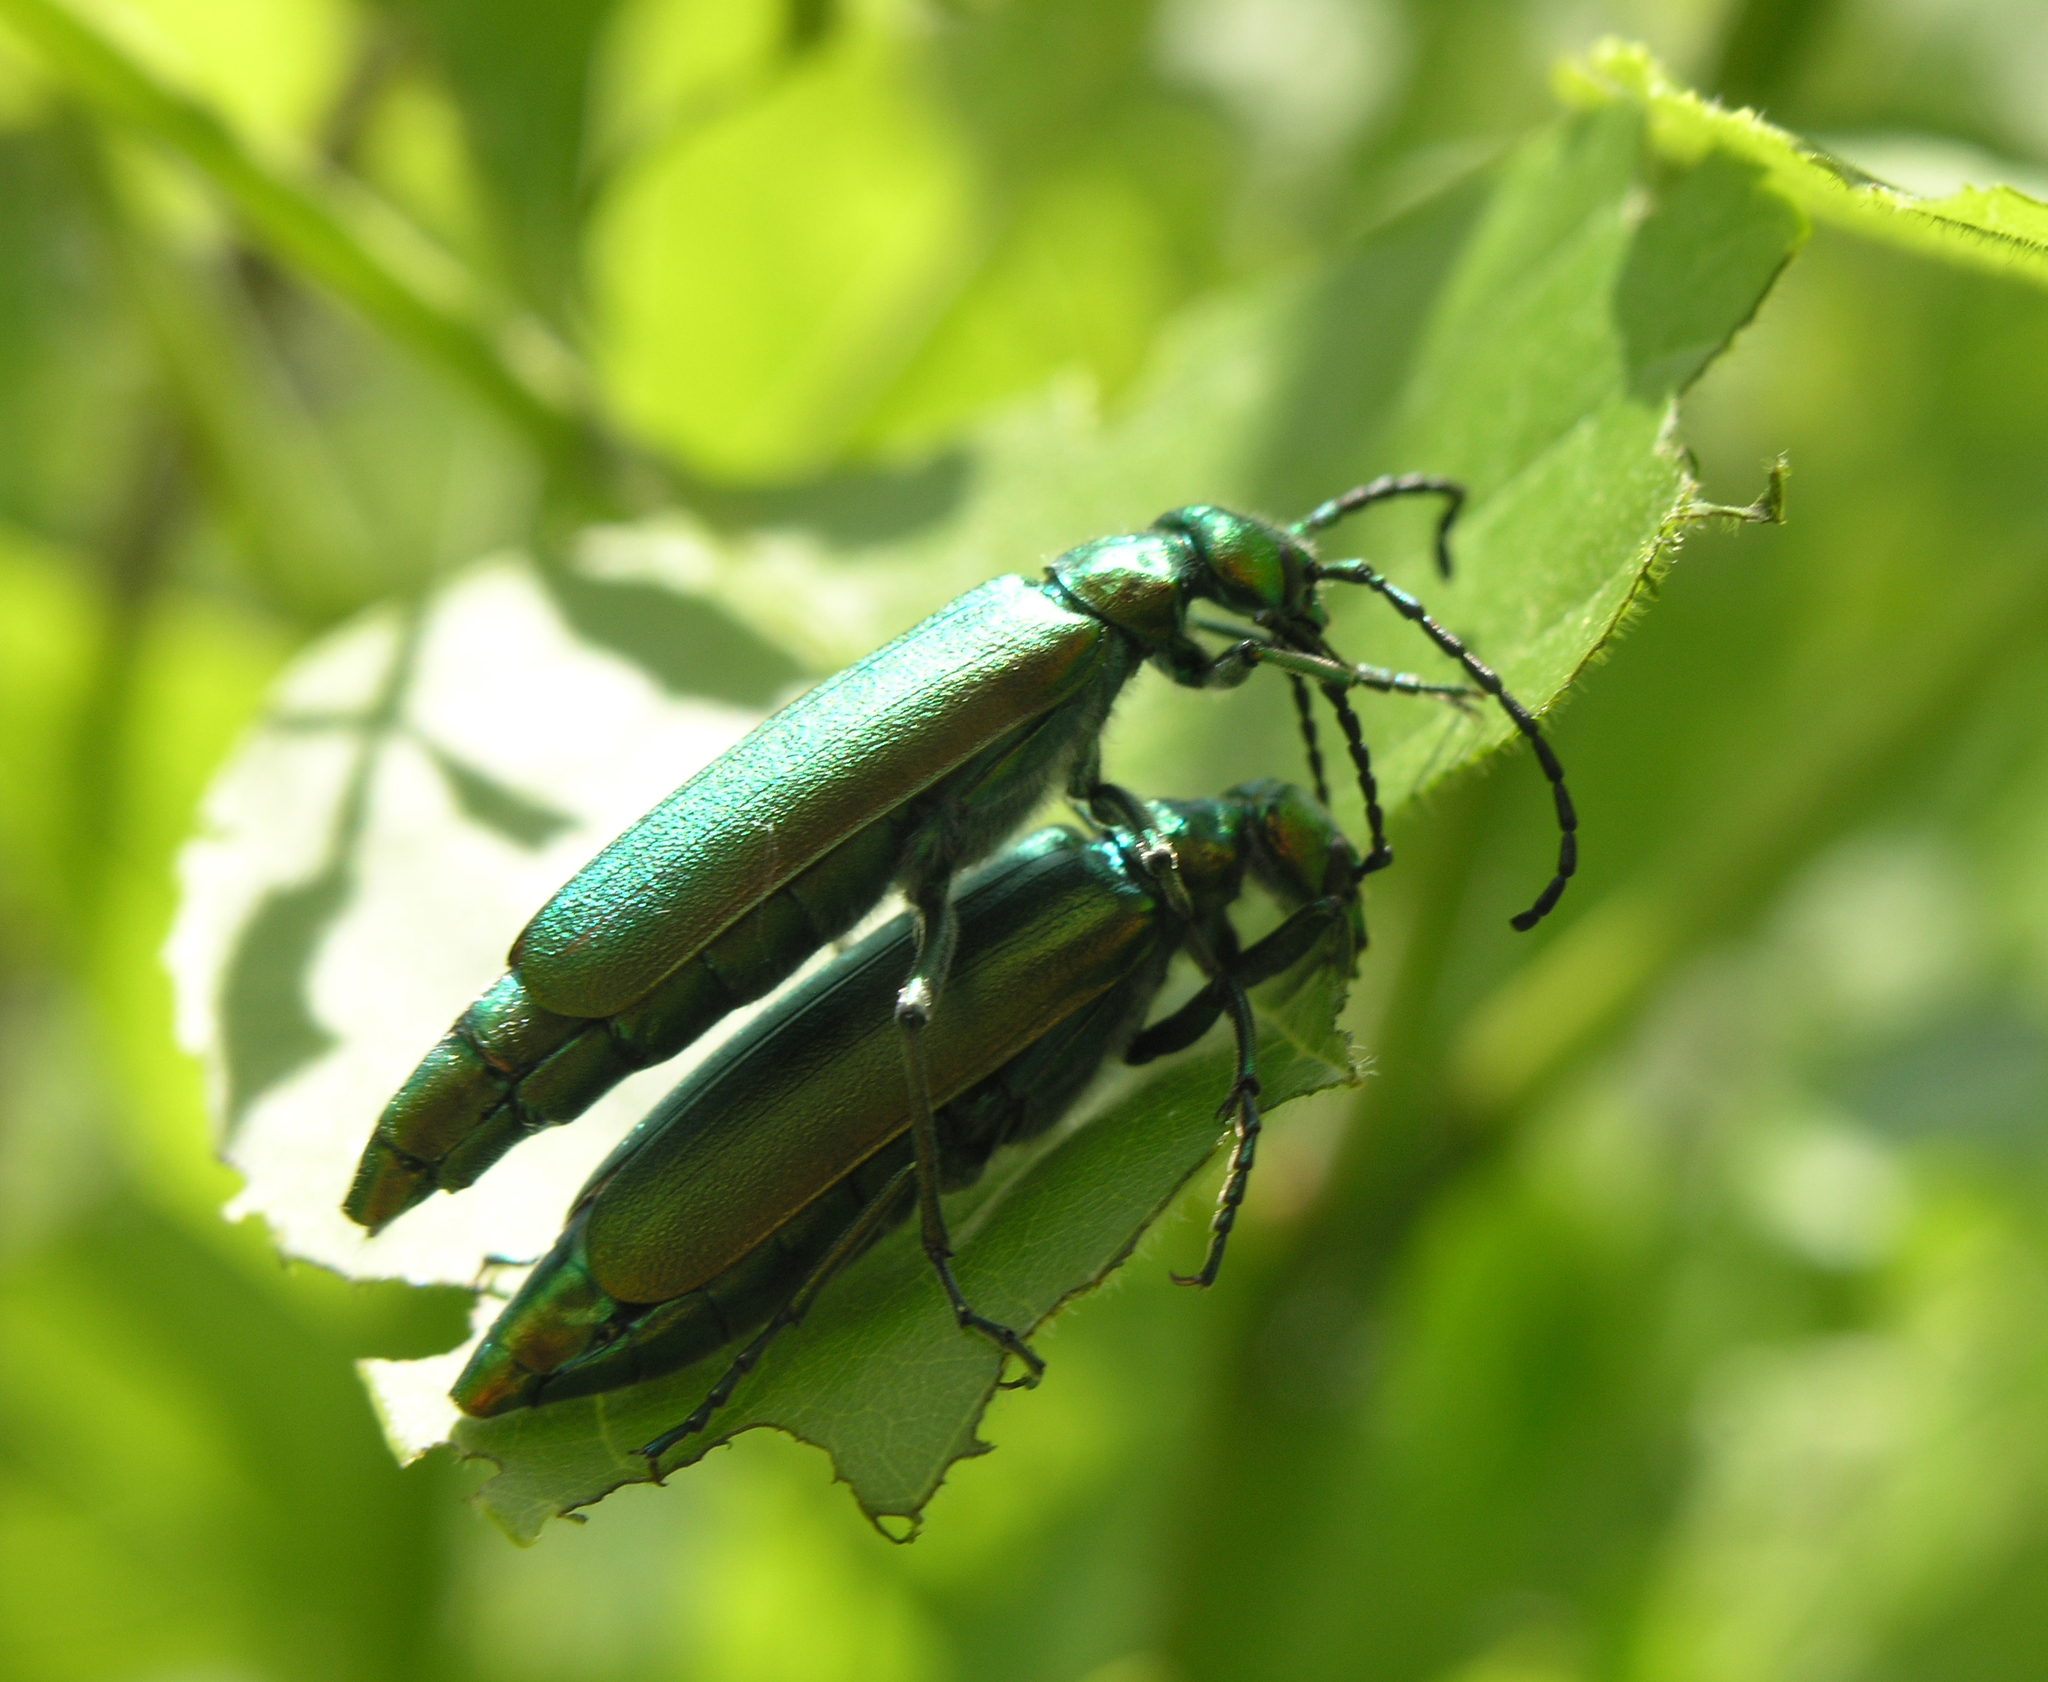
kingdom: Animalia
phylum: Arthropoda
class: Insecta
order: Coleoptera
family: Meloidae
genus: Lytta
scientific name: Lytta vesicatoria
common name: Spanish fly
